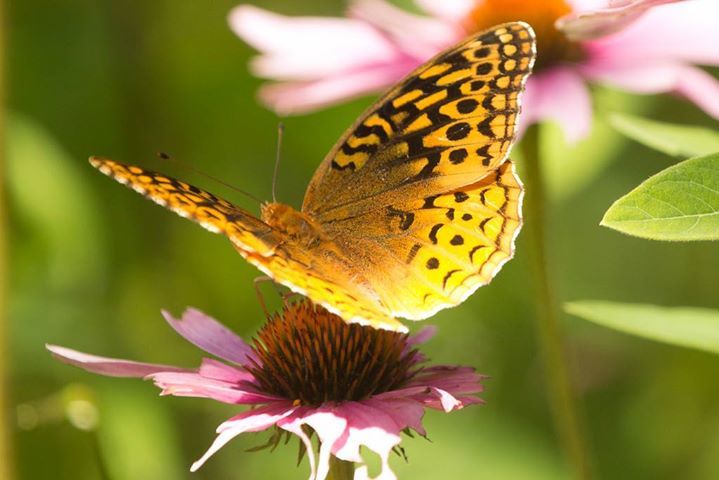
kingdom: Animalia
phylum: Arthropoda
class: Insecta
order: Lepidoptera
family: Nymphalidae
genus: Speyeria
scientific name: Speyeria cybele
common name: Great spangled fritillary
